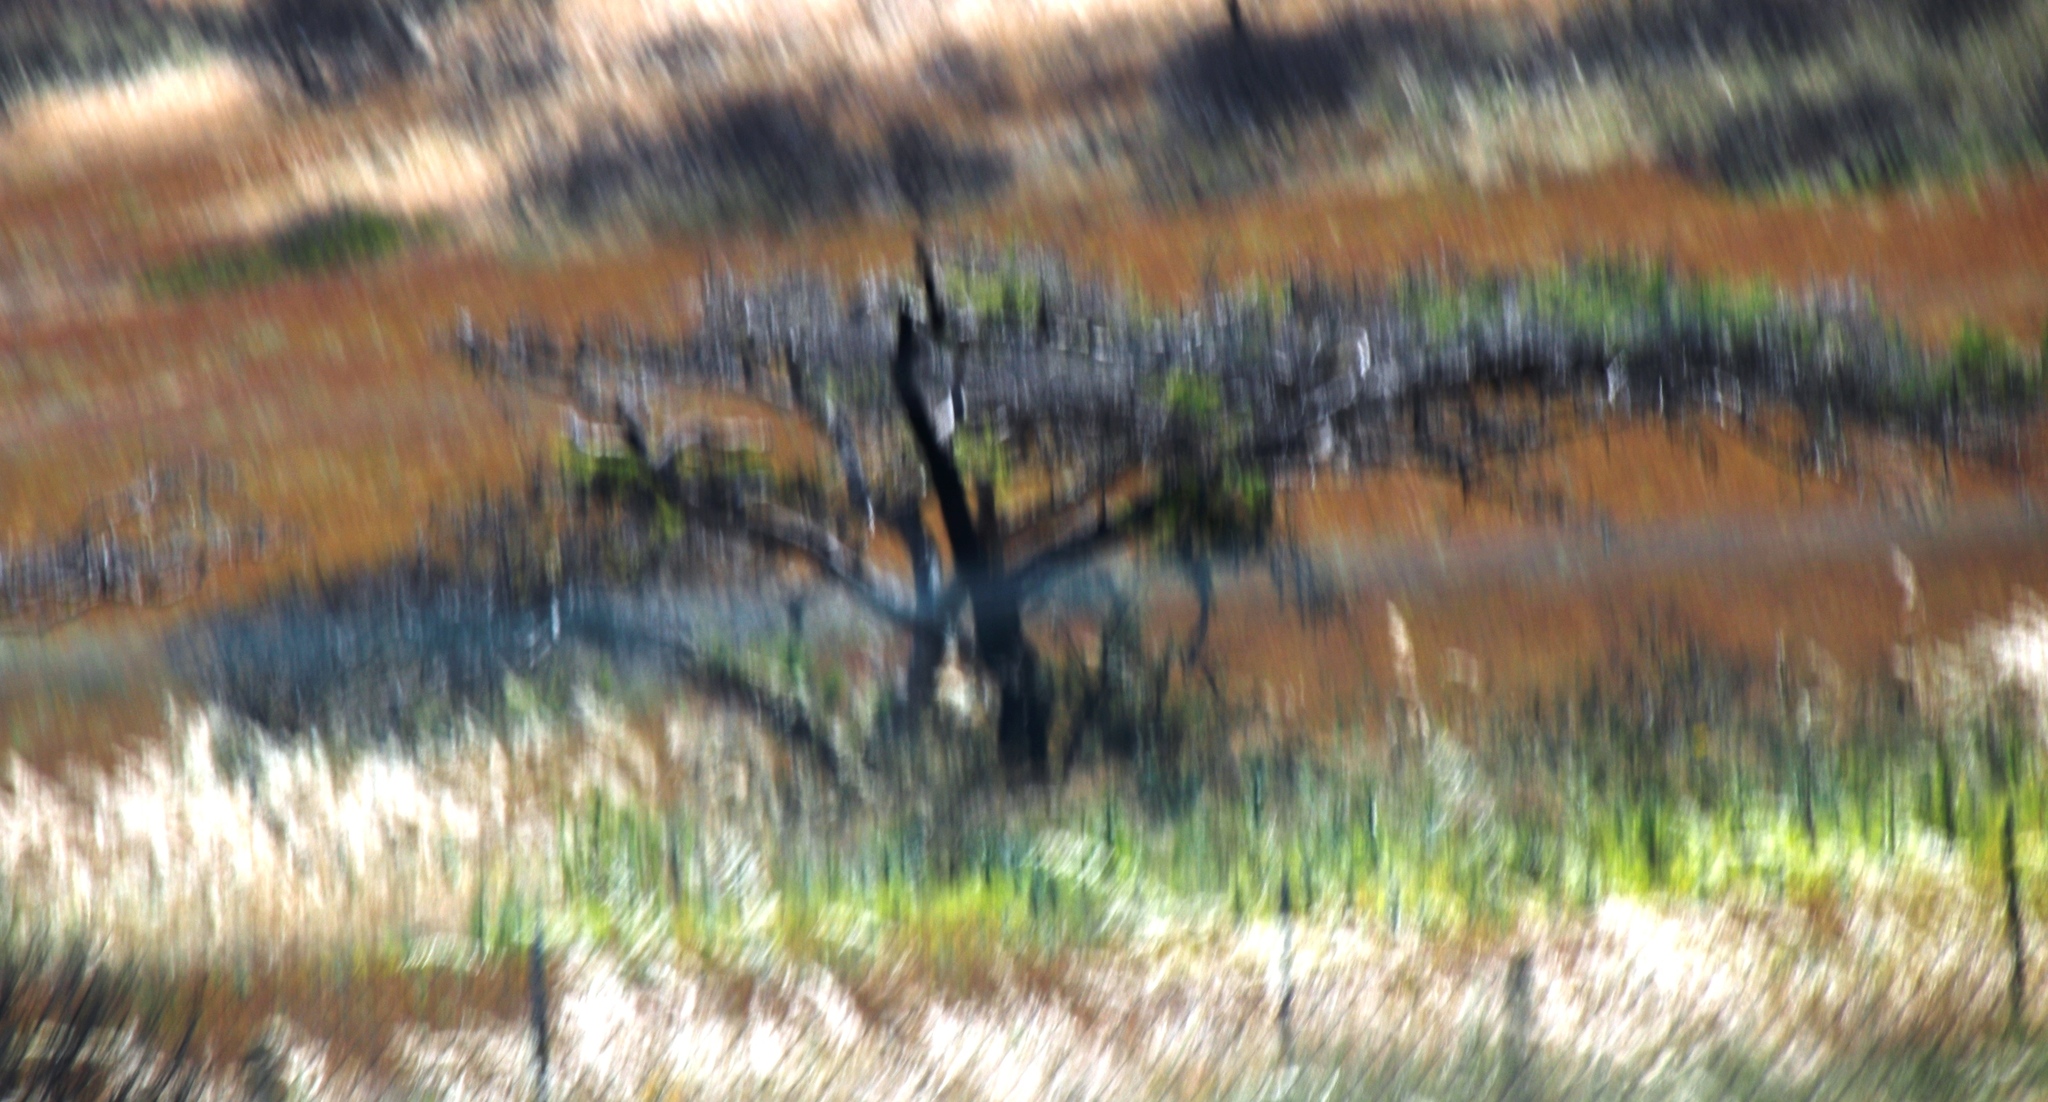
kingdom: Plantae
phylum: Tracheophyta
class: Magnoliopsida
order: Fabales
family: Fabaceae
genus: Vachellia
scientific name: Vachellia sieberiana
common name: Flat-topped thorn
